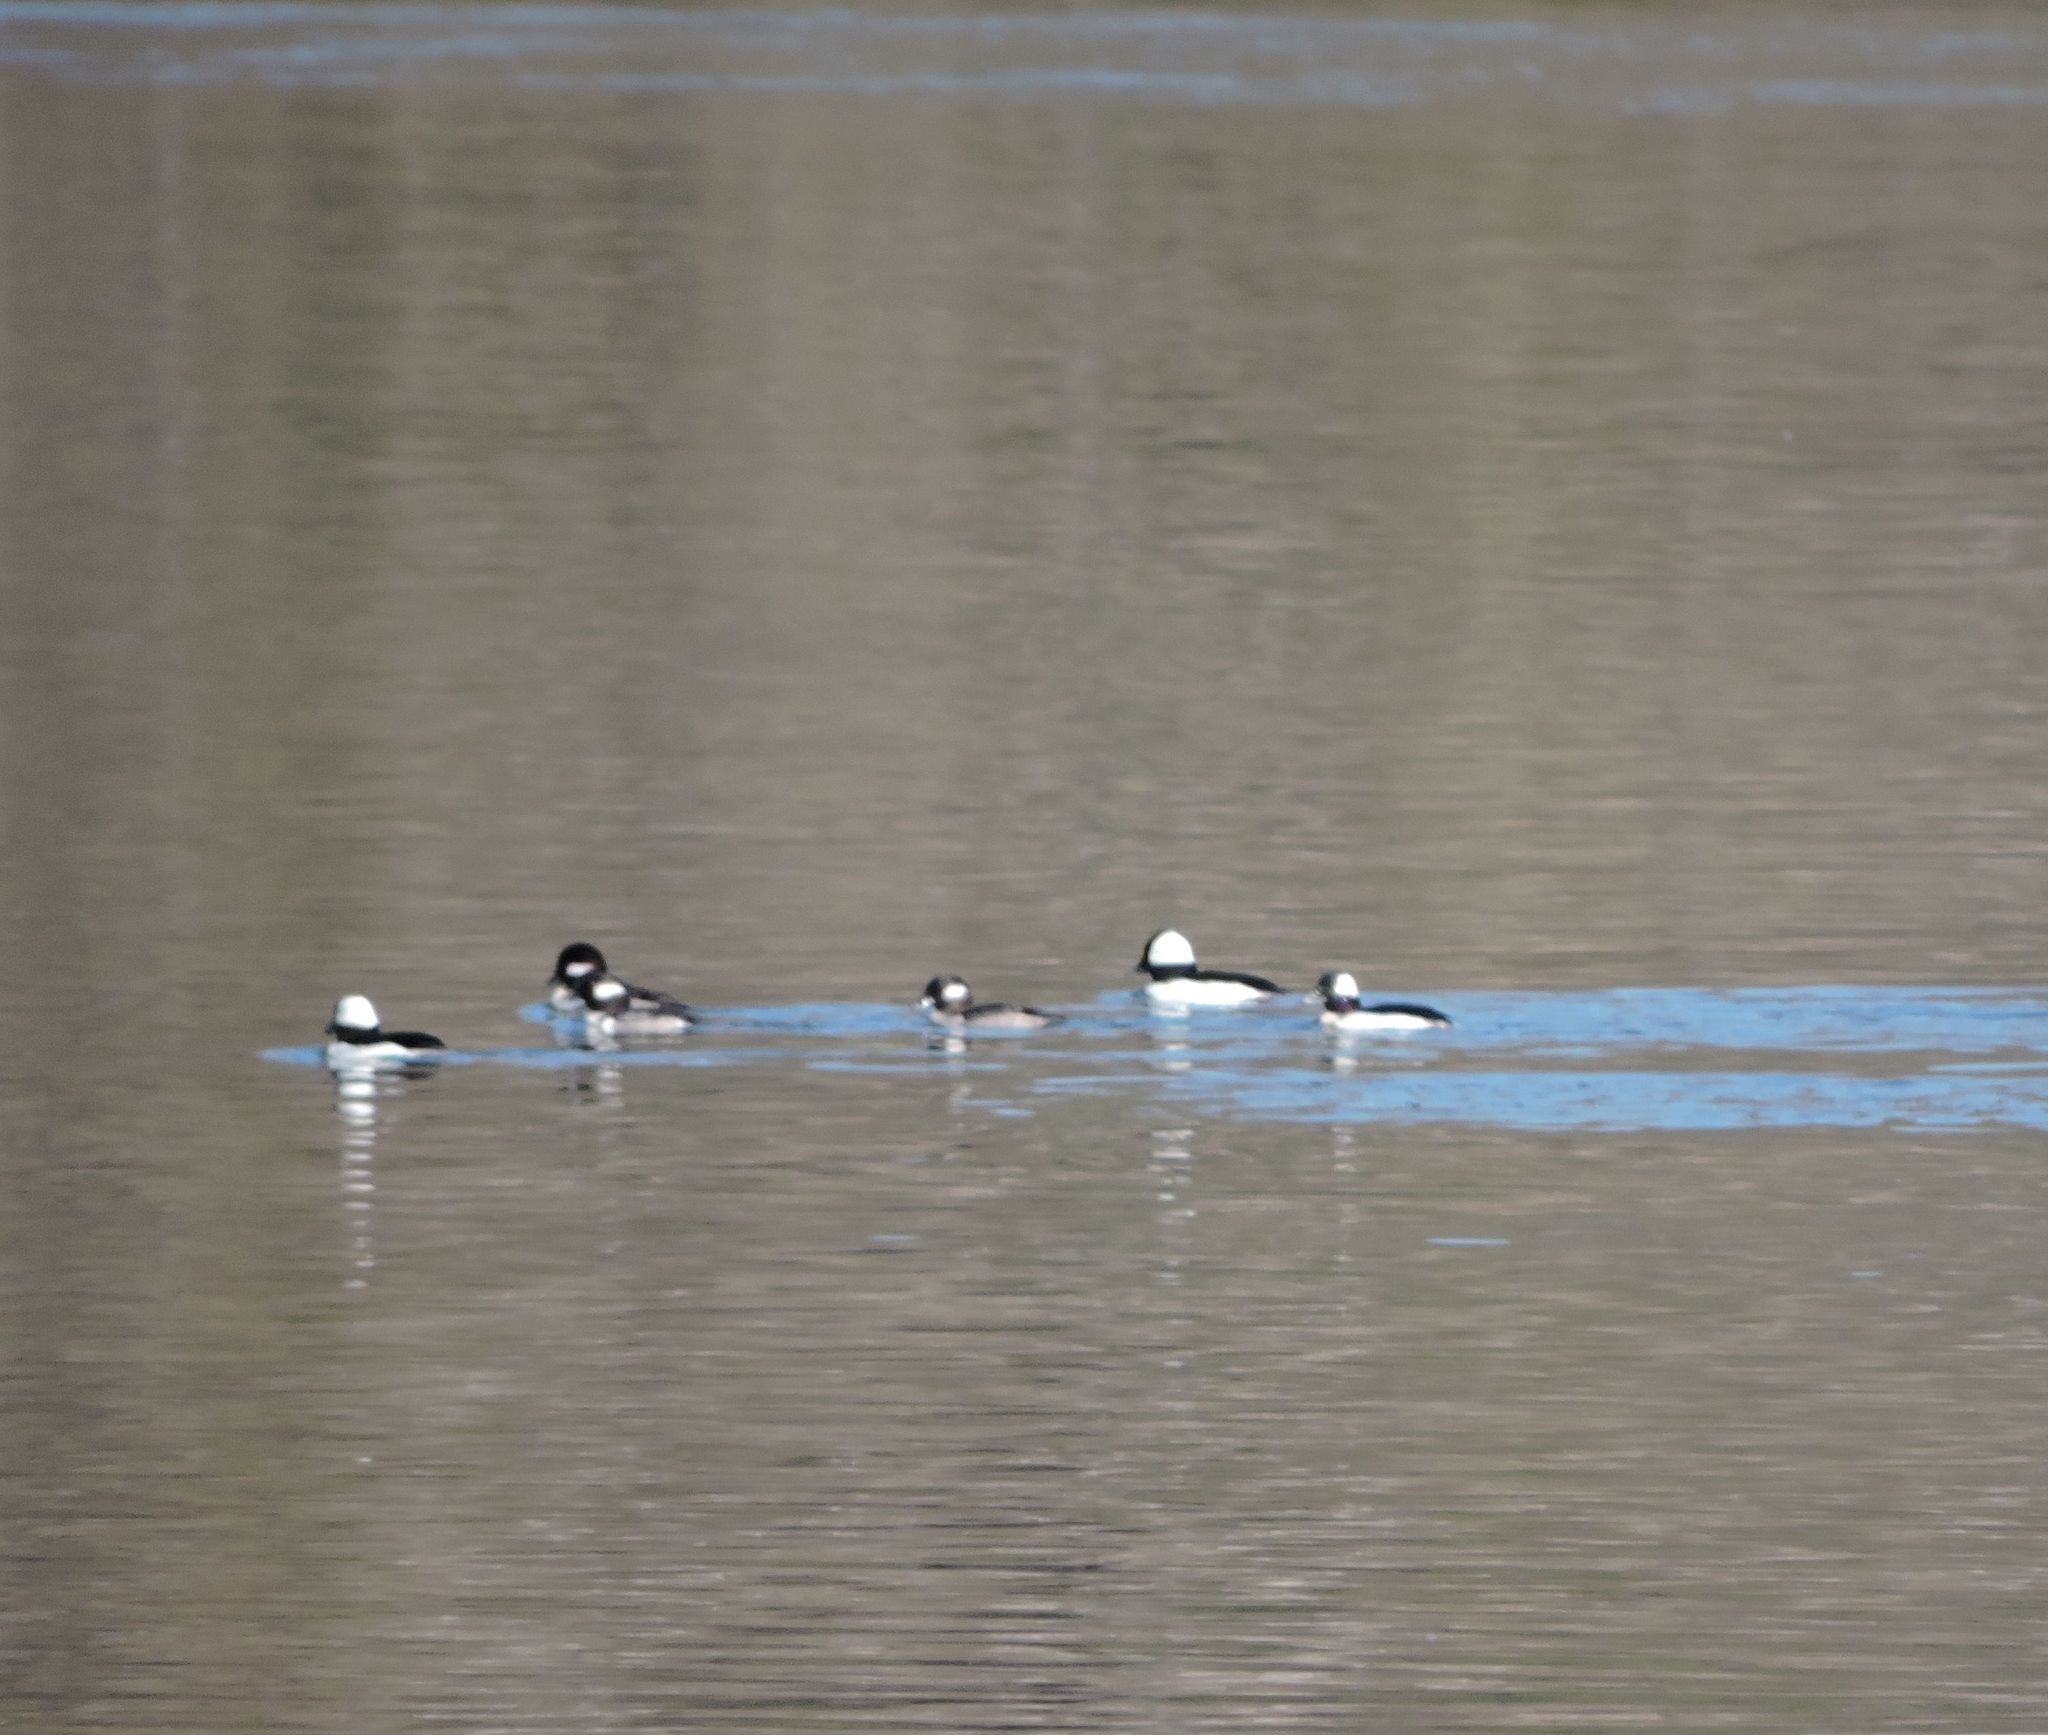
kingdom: Animalia
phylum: Chordata
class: Aves
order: Anseriformes
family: Anatidae
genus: Bucephala
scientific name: Bucephala albeola
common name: Bufflehead
